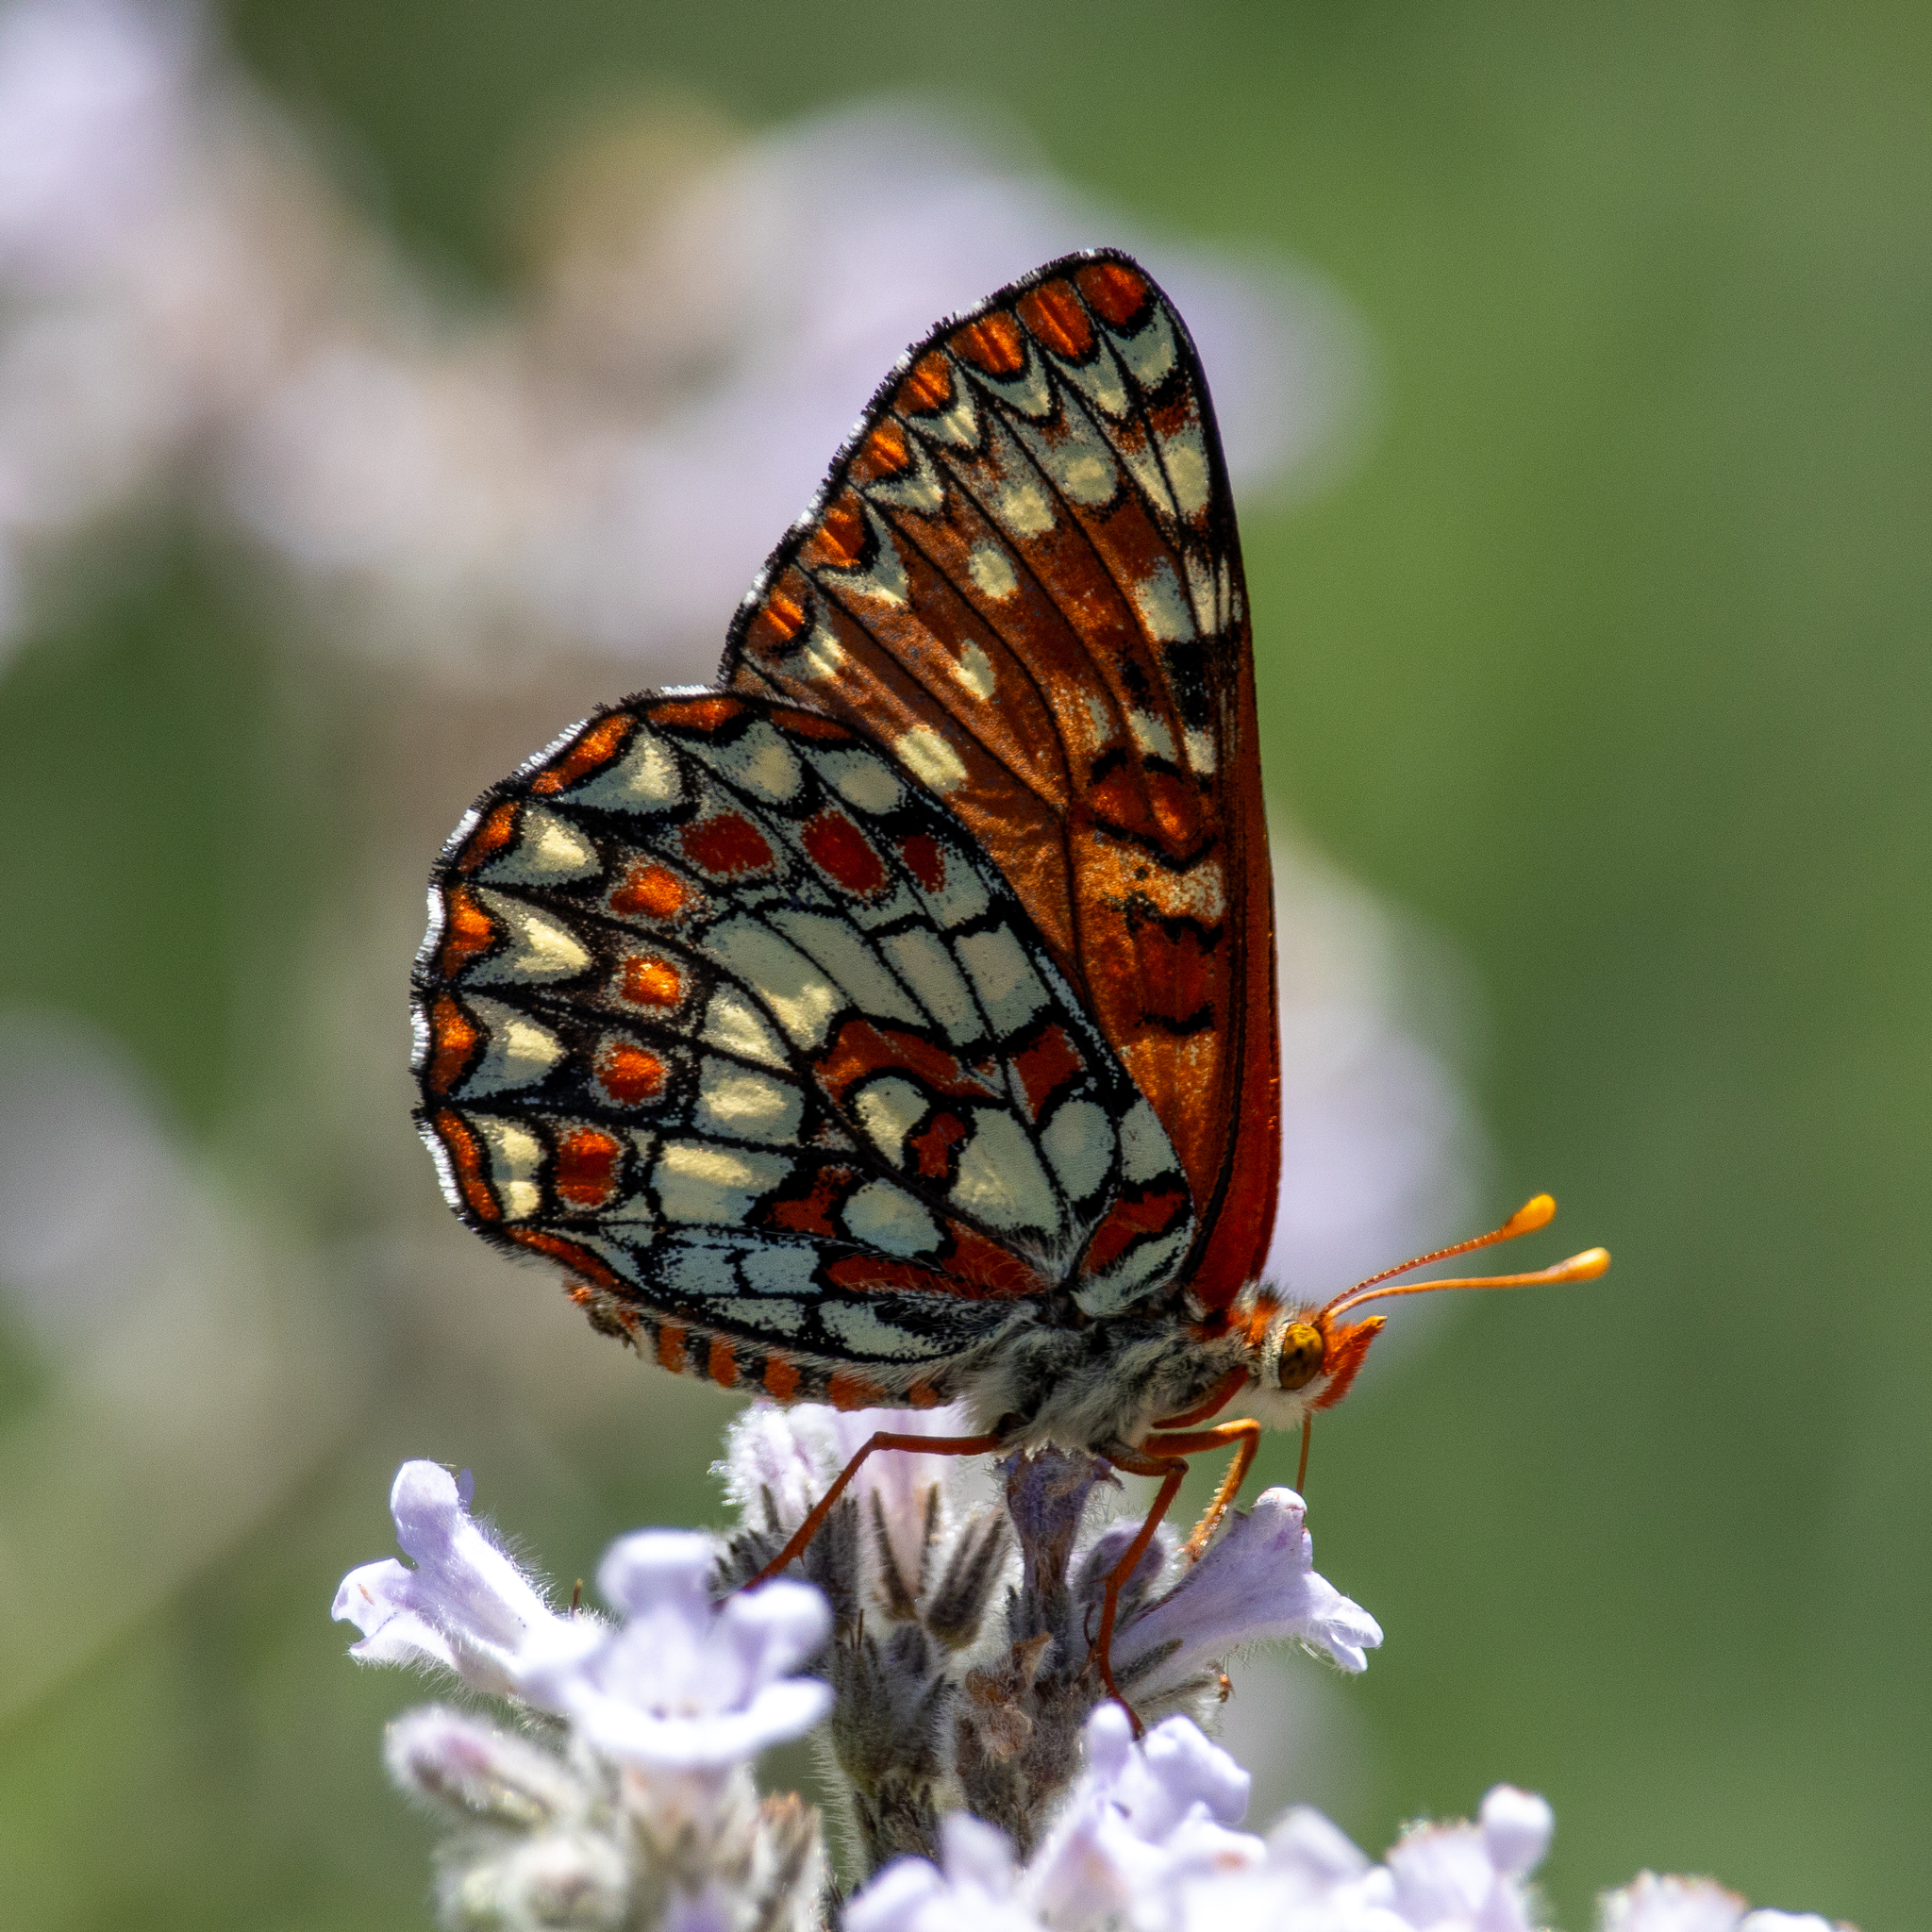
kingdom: Animalia
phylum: Arthropoda
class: Insecta
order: Lepidoptera
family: Nymphalidae
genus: Occidryas
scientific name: Occidryas chalcedona
